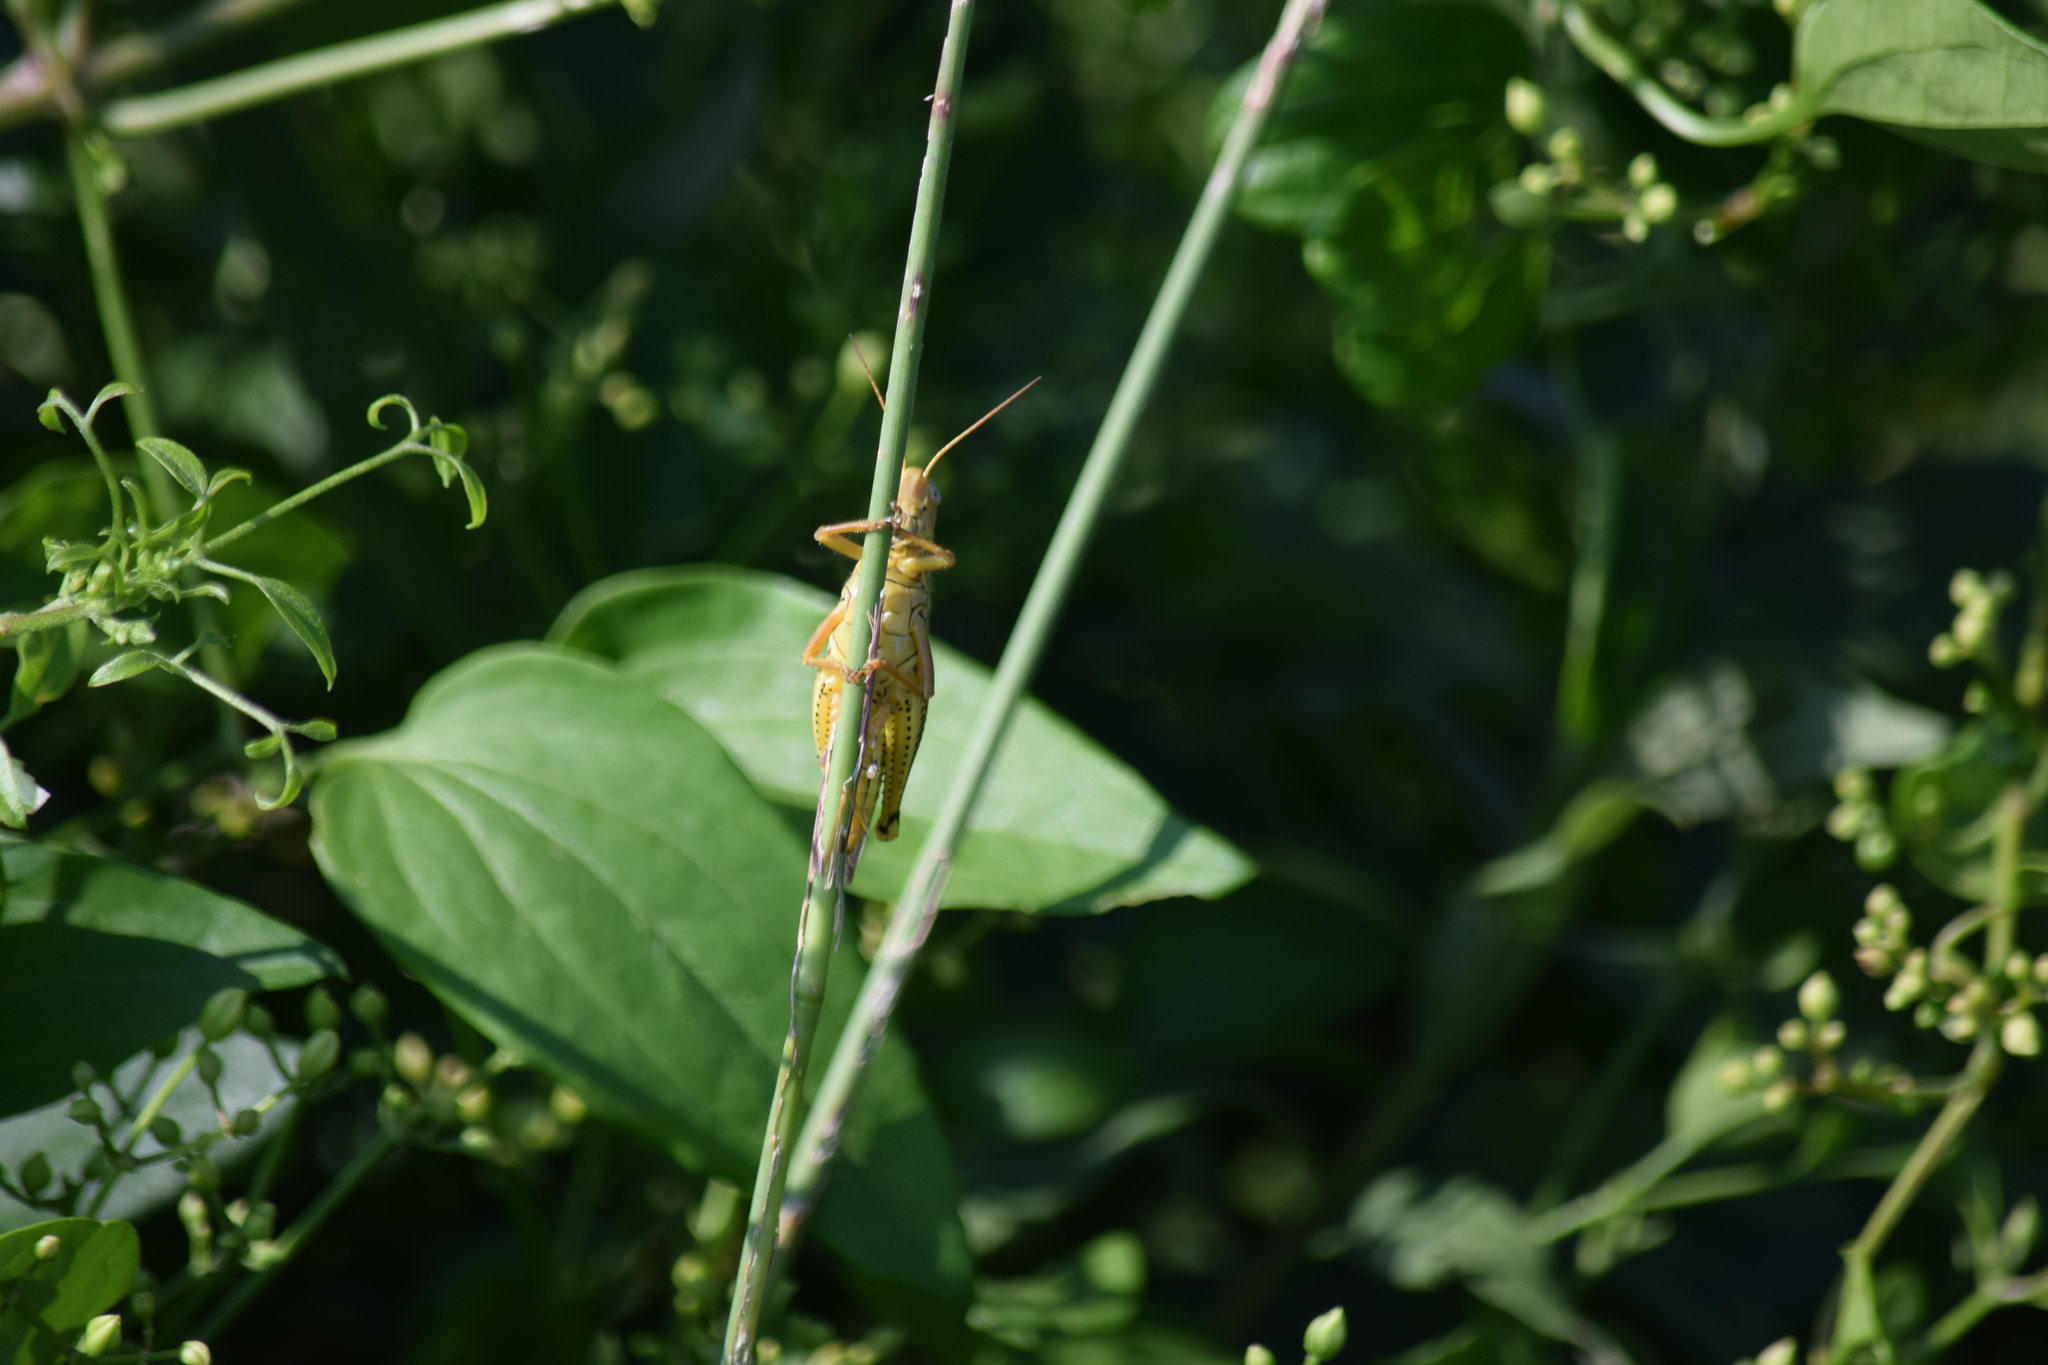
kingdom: Animalia
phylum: Arthropoda
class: Insecta
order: Orthoptera
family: Acrididae
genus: Melanoplus
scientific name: Melanoplus differentialis
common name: Differential grasshopper
